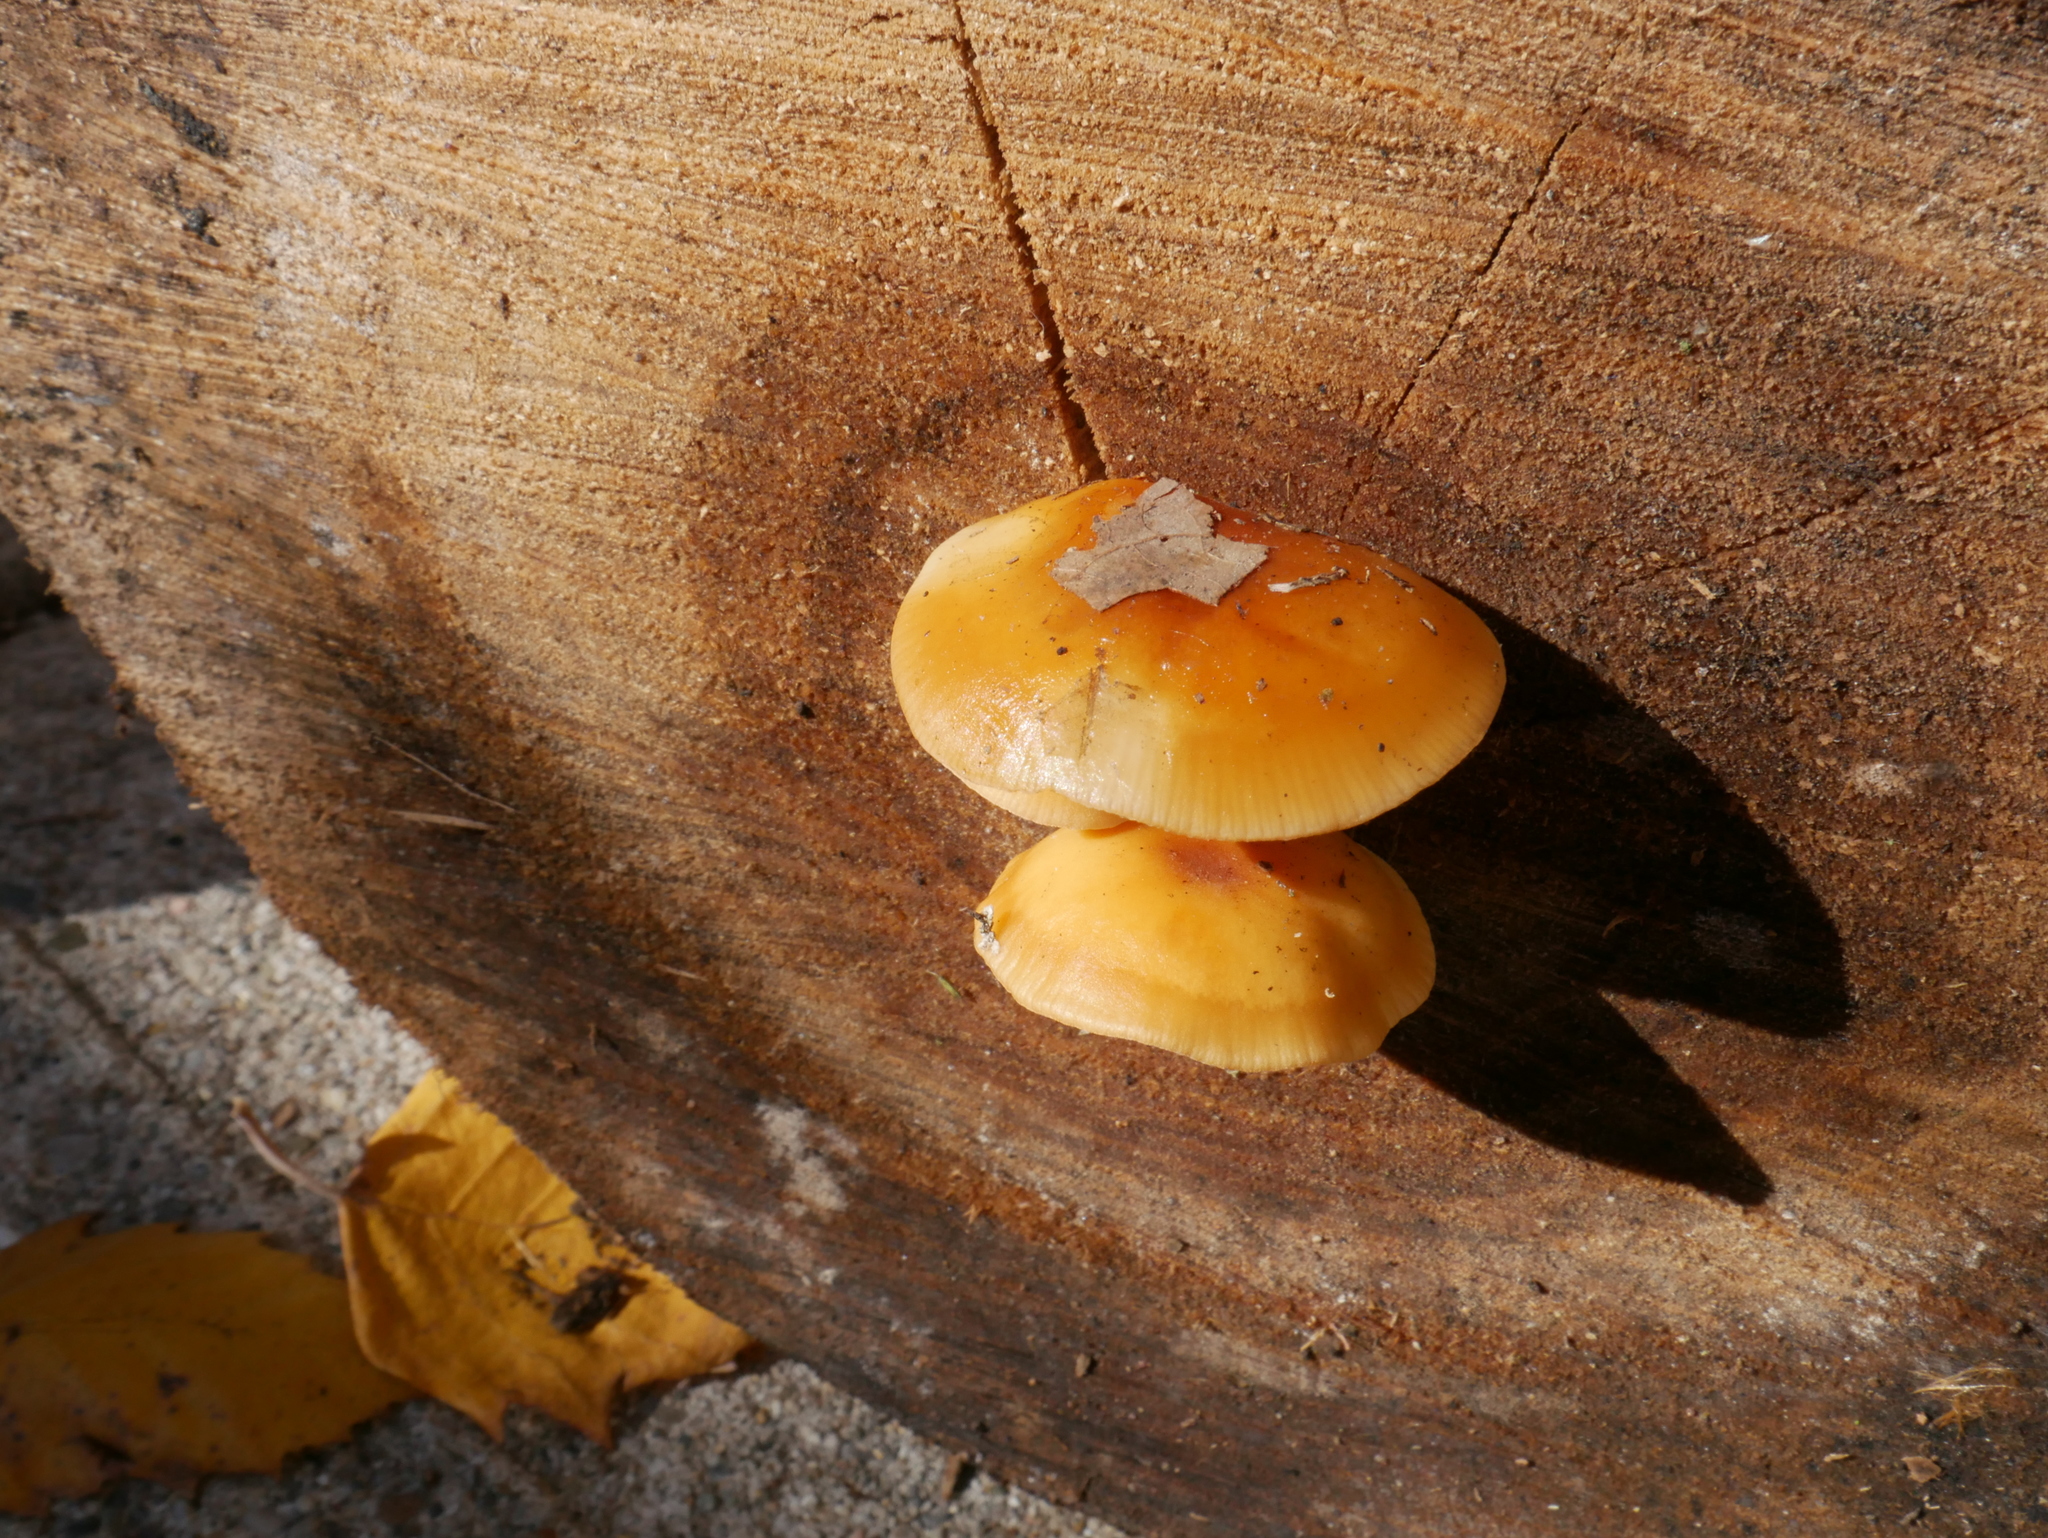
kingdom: Fungi
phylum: Basidiomycota
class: Agaricomycetes
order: Agaricales
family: Physalacriaceae
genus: Flammulina
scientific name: Flammulina velutipes
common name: Velvet shank
